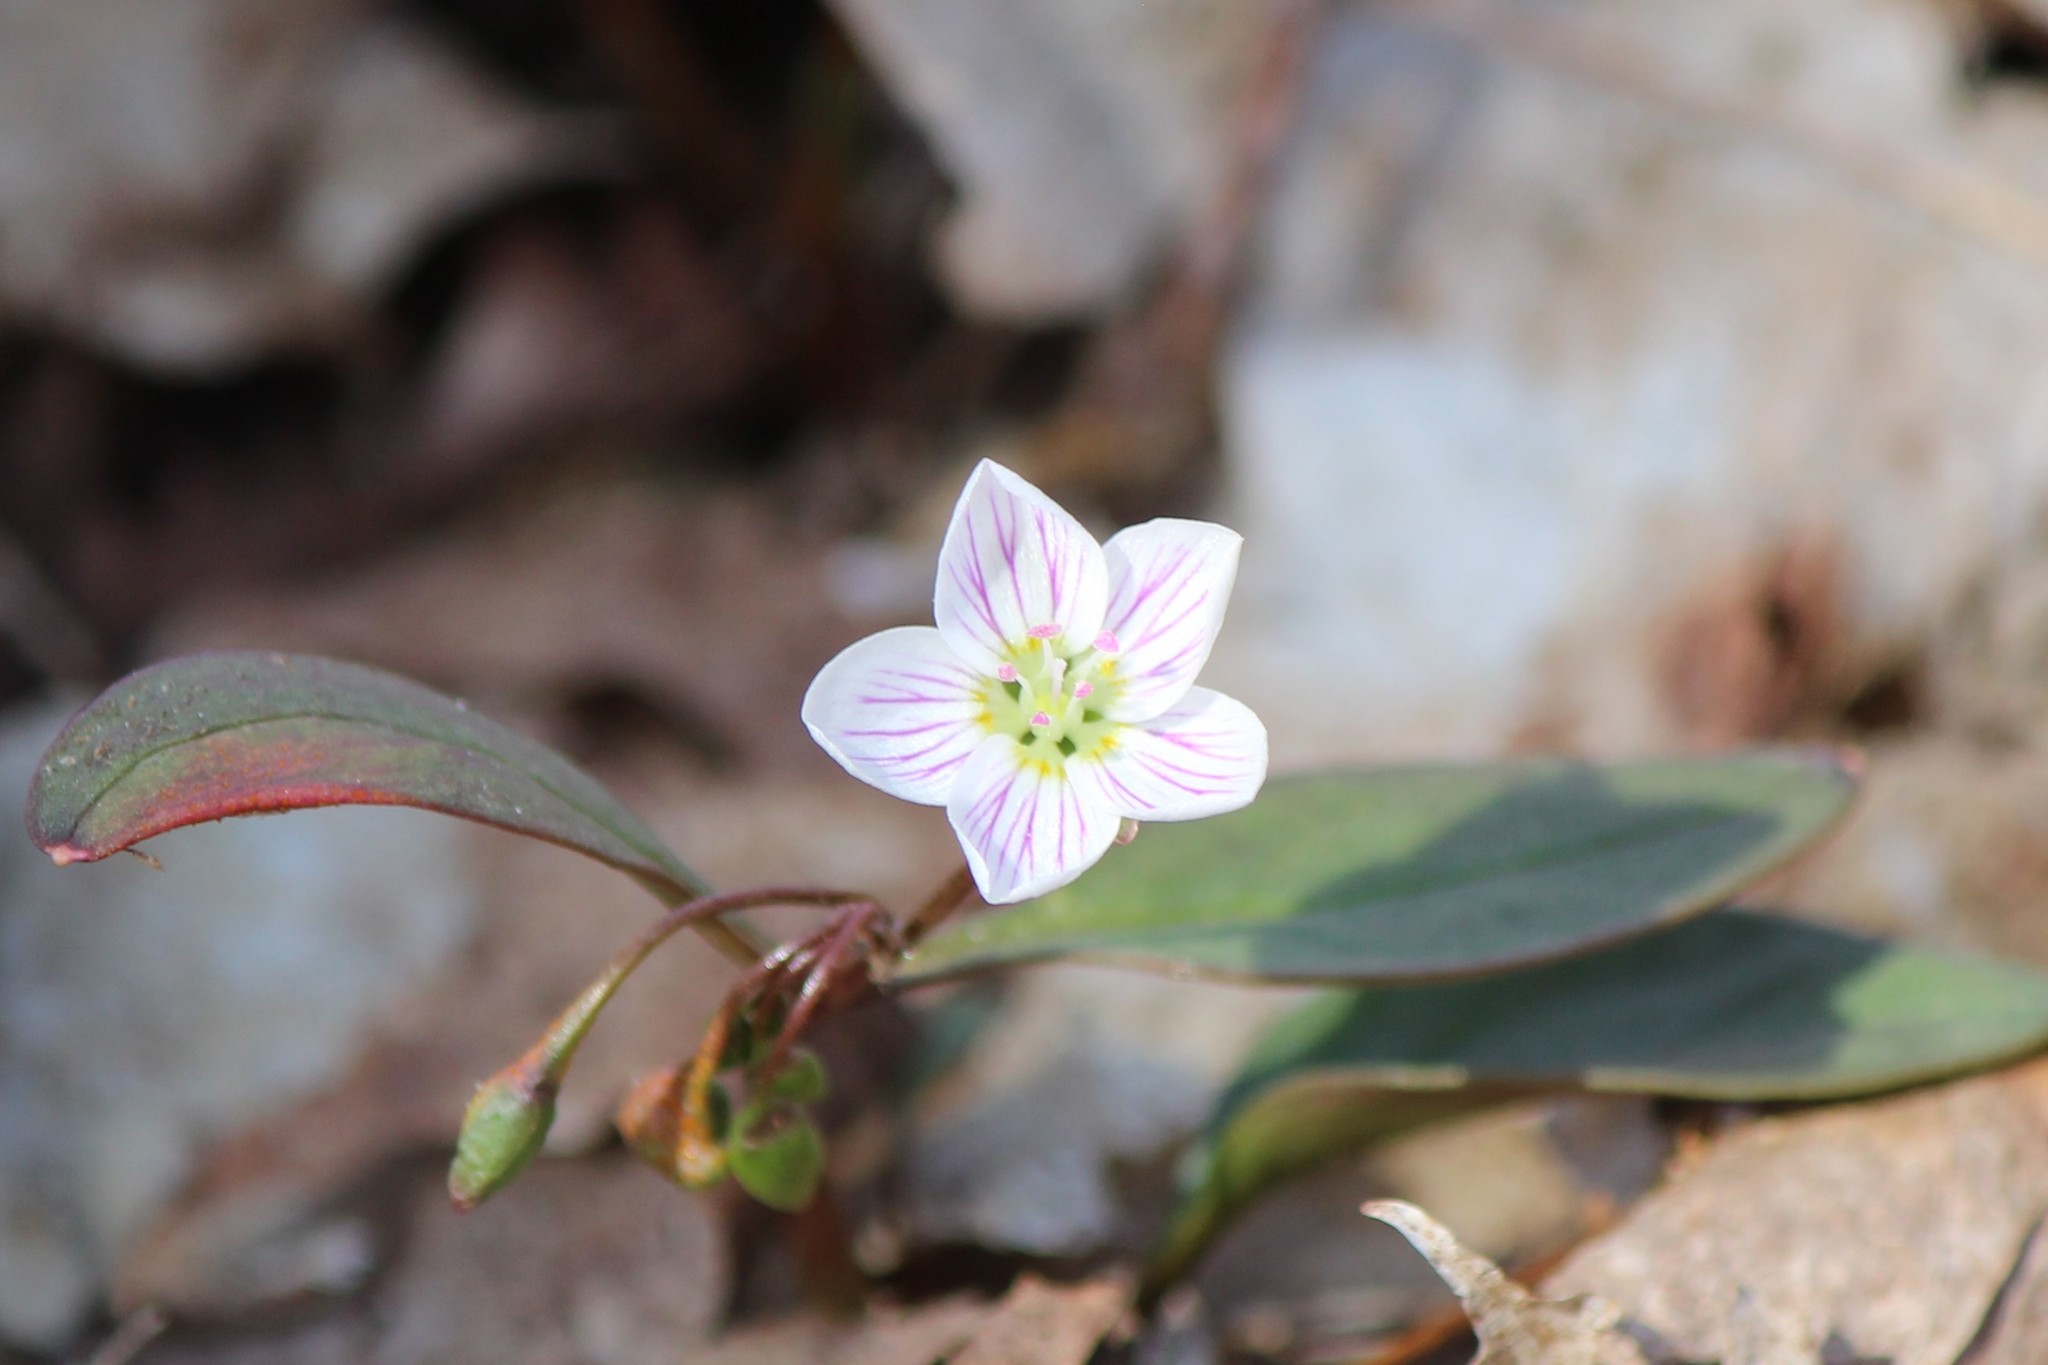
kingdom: Plantae
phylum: Tracheophyta
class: Magnoliopsida
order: Caryophyllales
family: Montiaceae
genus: Claytonia
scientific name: Claytonia caroliniana
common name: Carolina spring beauty
